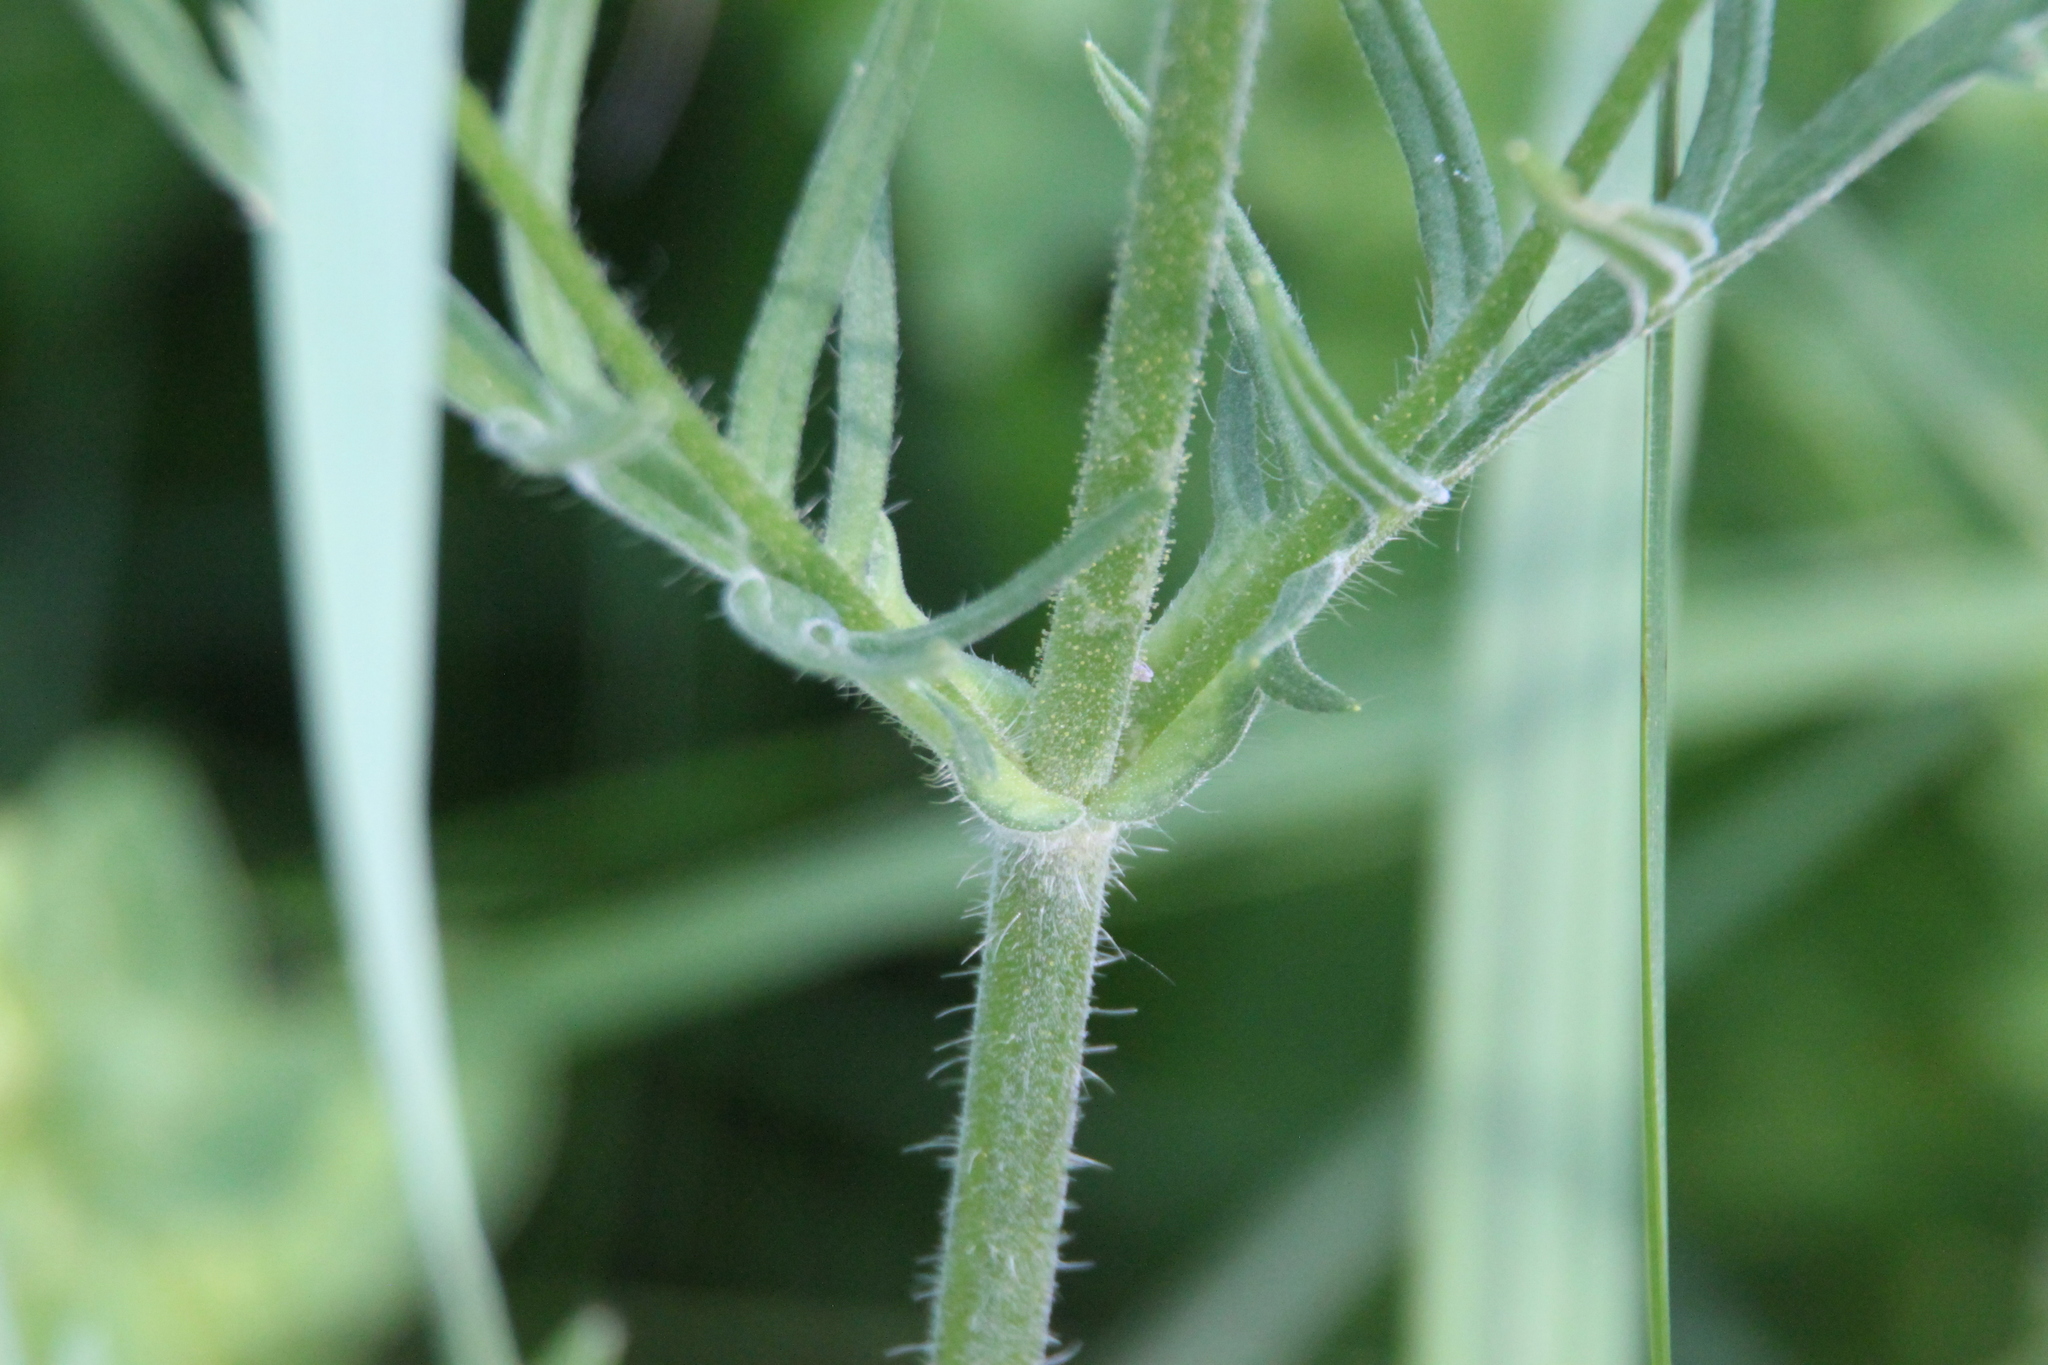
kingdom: Plantae
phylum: Tracheophyta
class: Magnoliopsida
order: Dipsacales
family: Caprifoliaceae
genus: Knautia
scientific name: Knautia arvensis
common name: Field scabiosa
